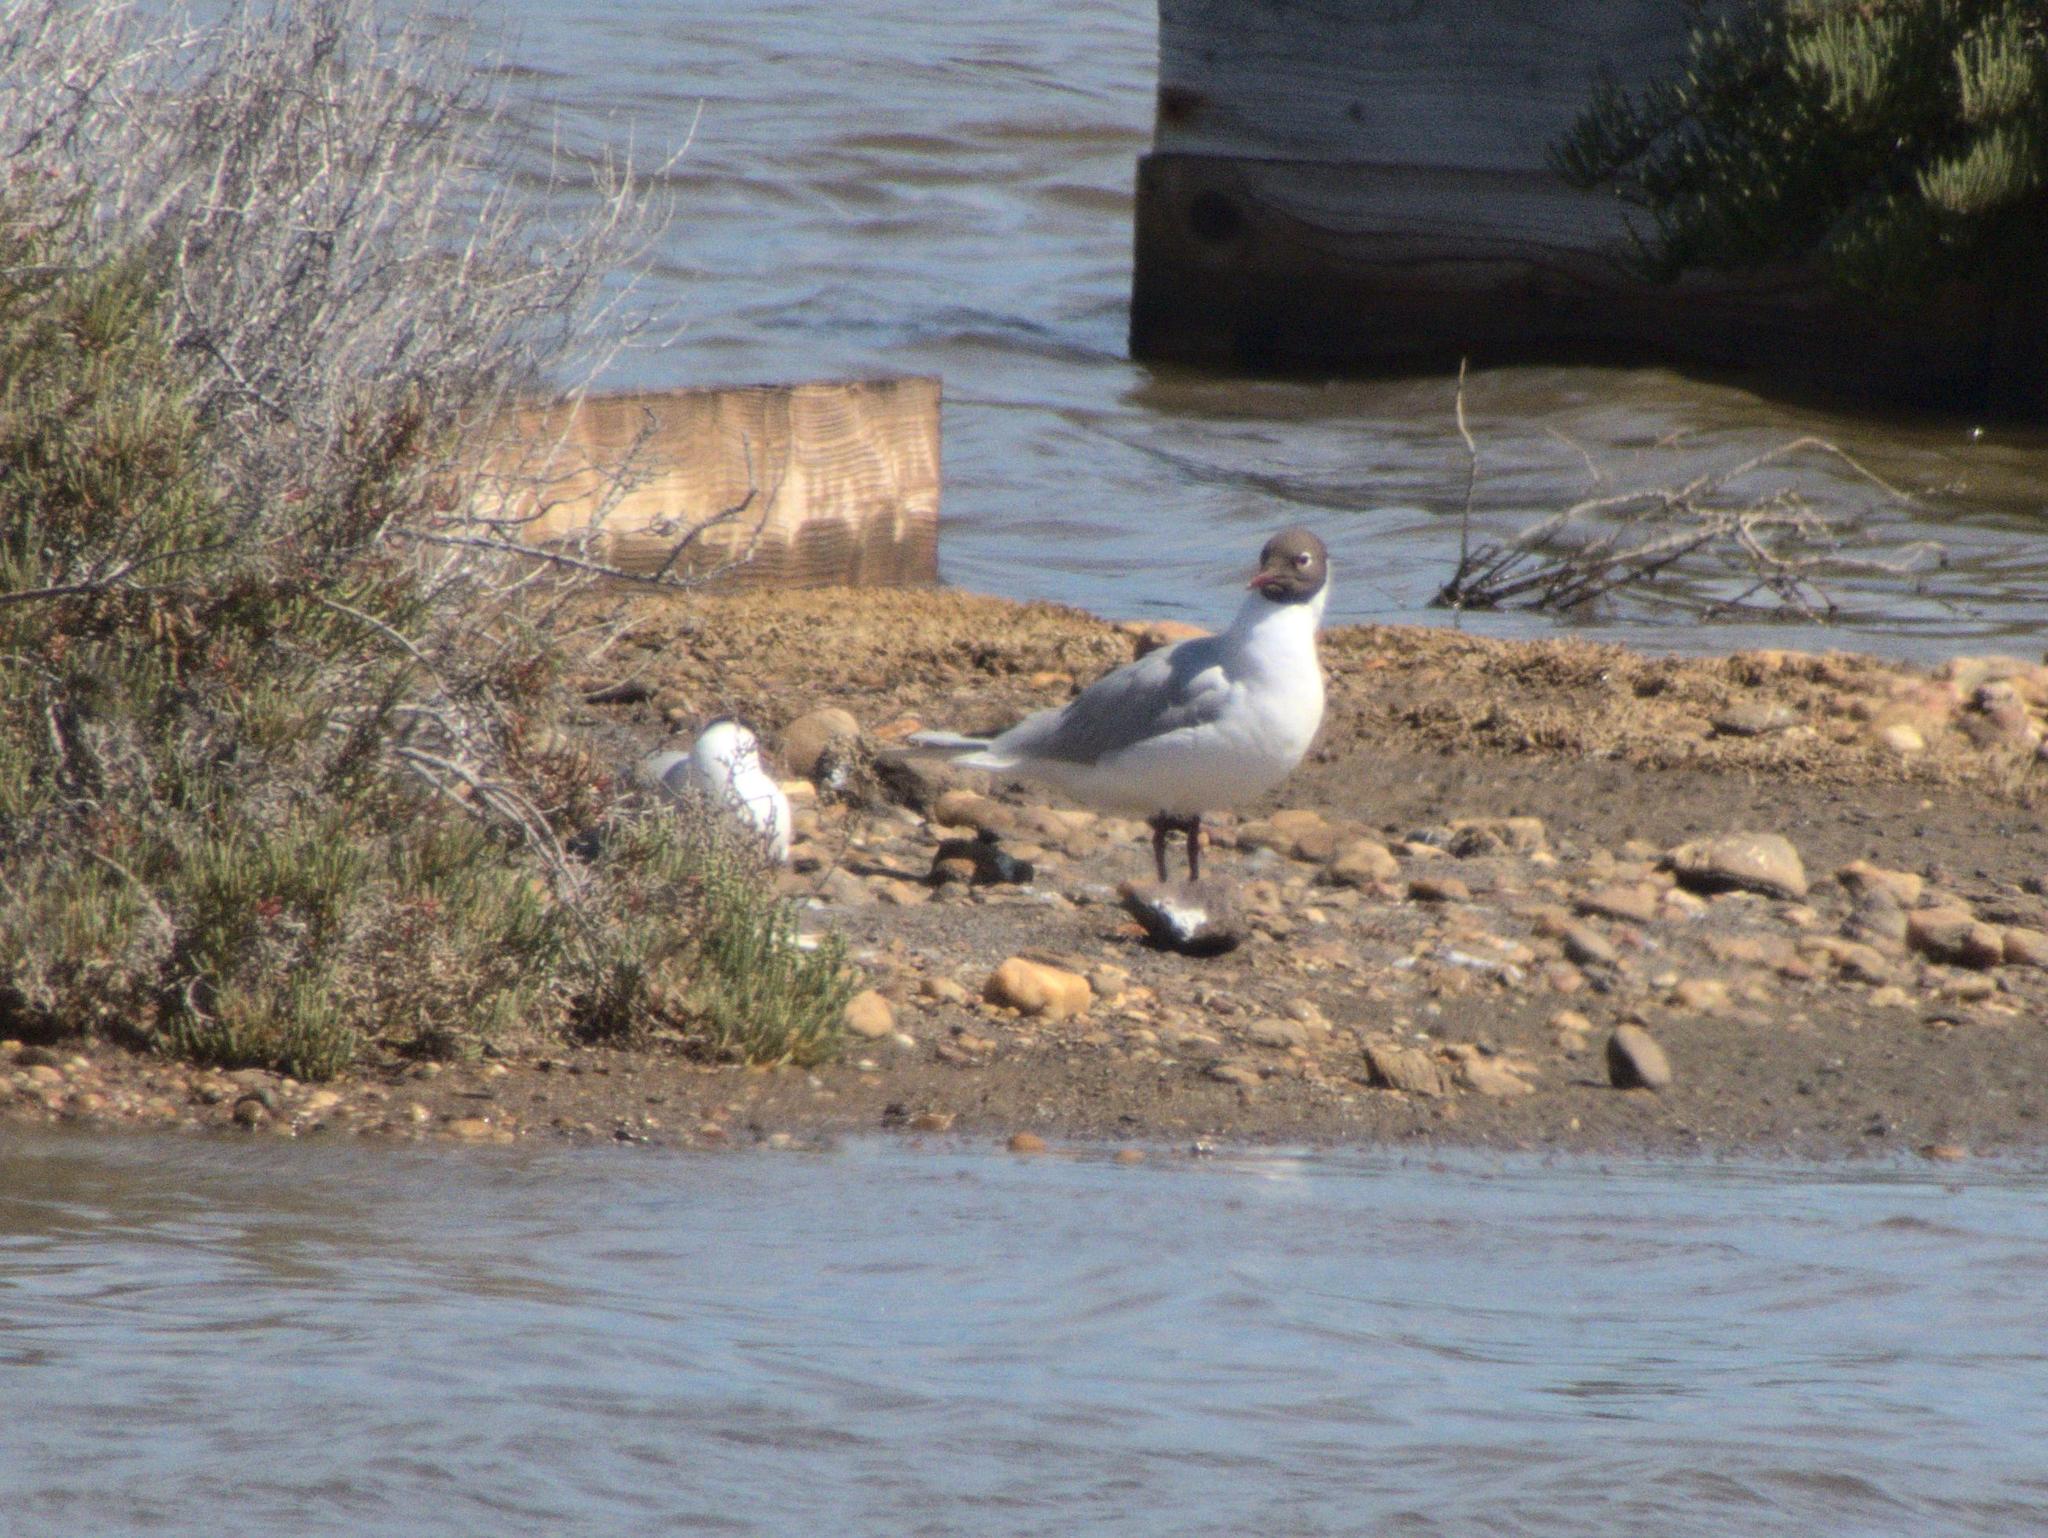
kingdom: Animalia
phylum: Chordata
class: Aves
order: Charadriiformes
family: Laridae
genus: Chroicocephalus
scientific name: Chroicocephalus ridibundus
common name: Black-headed gull
